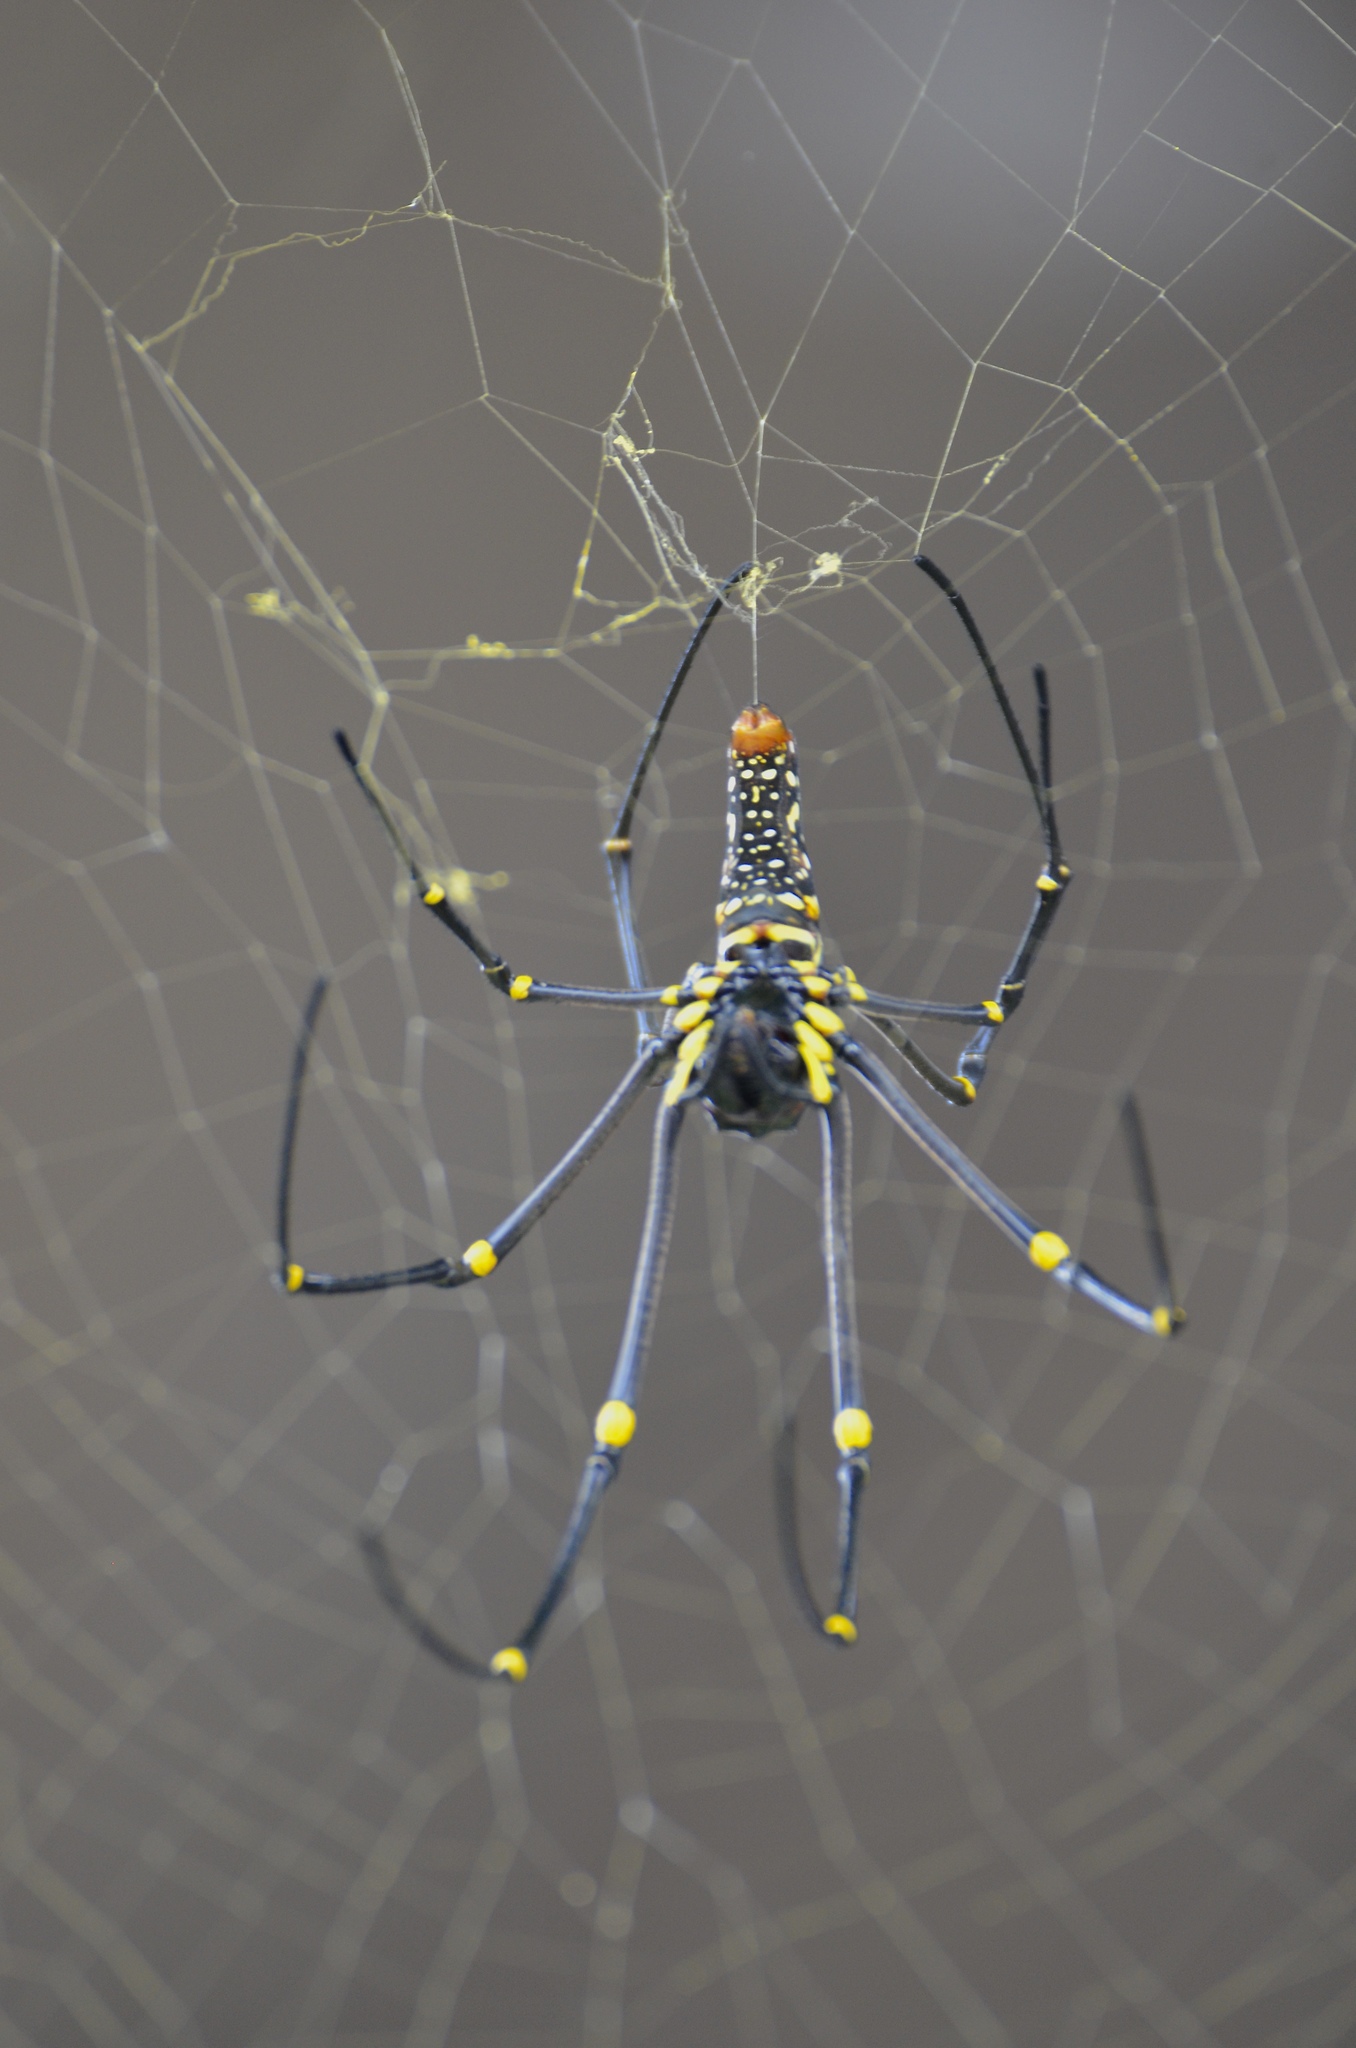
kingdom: Animalia
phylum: Arthropoda
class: Arachnida
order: Araneae
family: Araneidae
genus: Nephila
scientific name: Nephila pilipes
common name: Giant golden orb weaver
